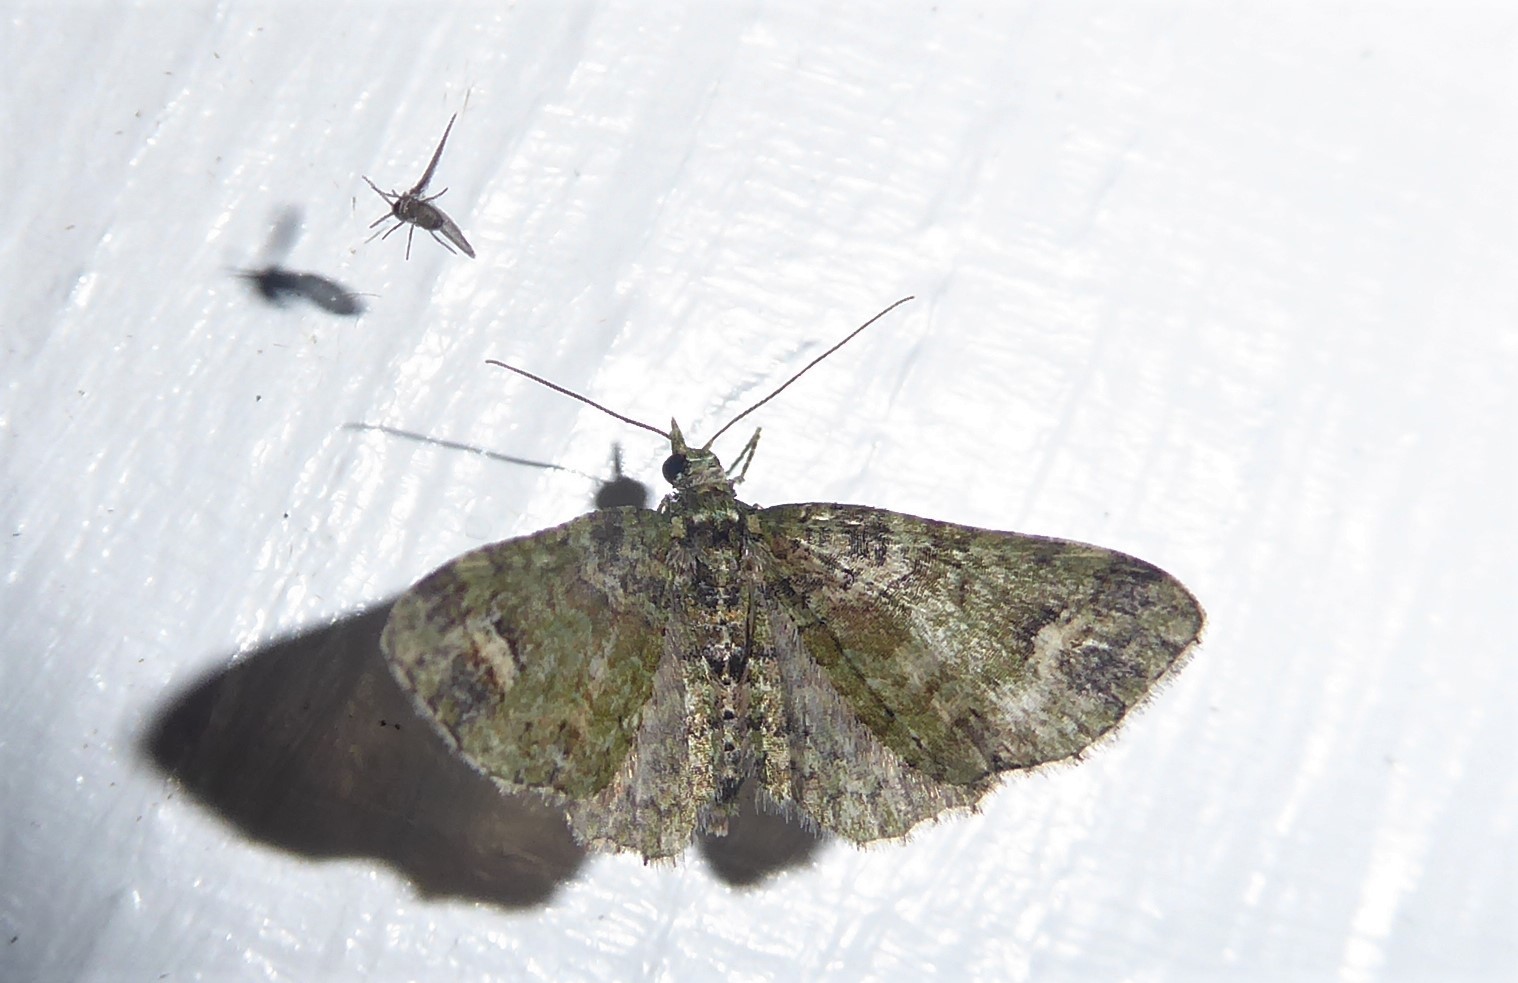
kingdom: Animalia
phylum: Arthropoda
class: Insecta
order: Lepidoptera
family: Geometridae
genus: Idaea
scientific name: Idaea mutanda
